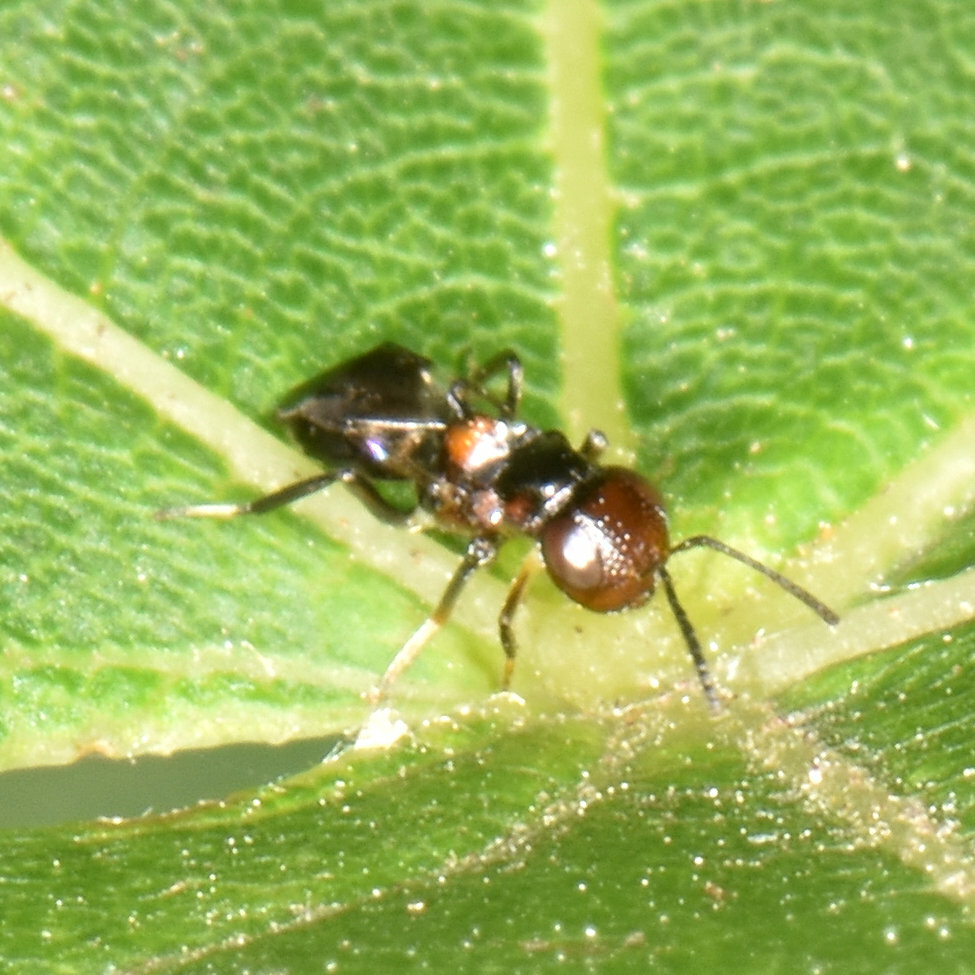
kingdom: Animalia
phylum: Arthropoda
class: Insecta
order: Hymenoptera
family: Encyrtidae
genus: Encyrtus
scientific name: Encyrtus aurantii
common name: Parasitoid wasp
